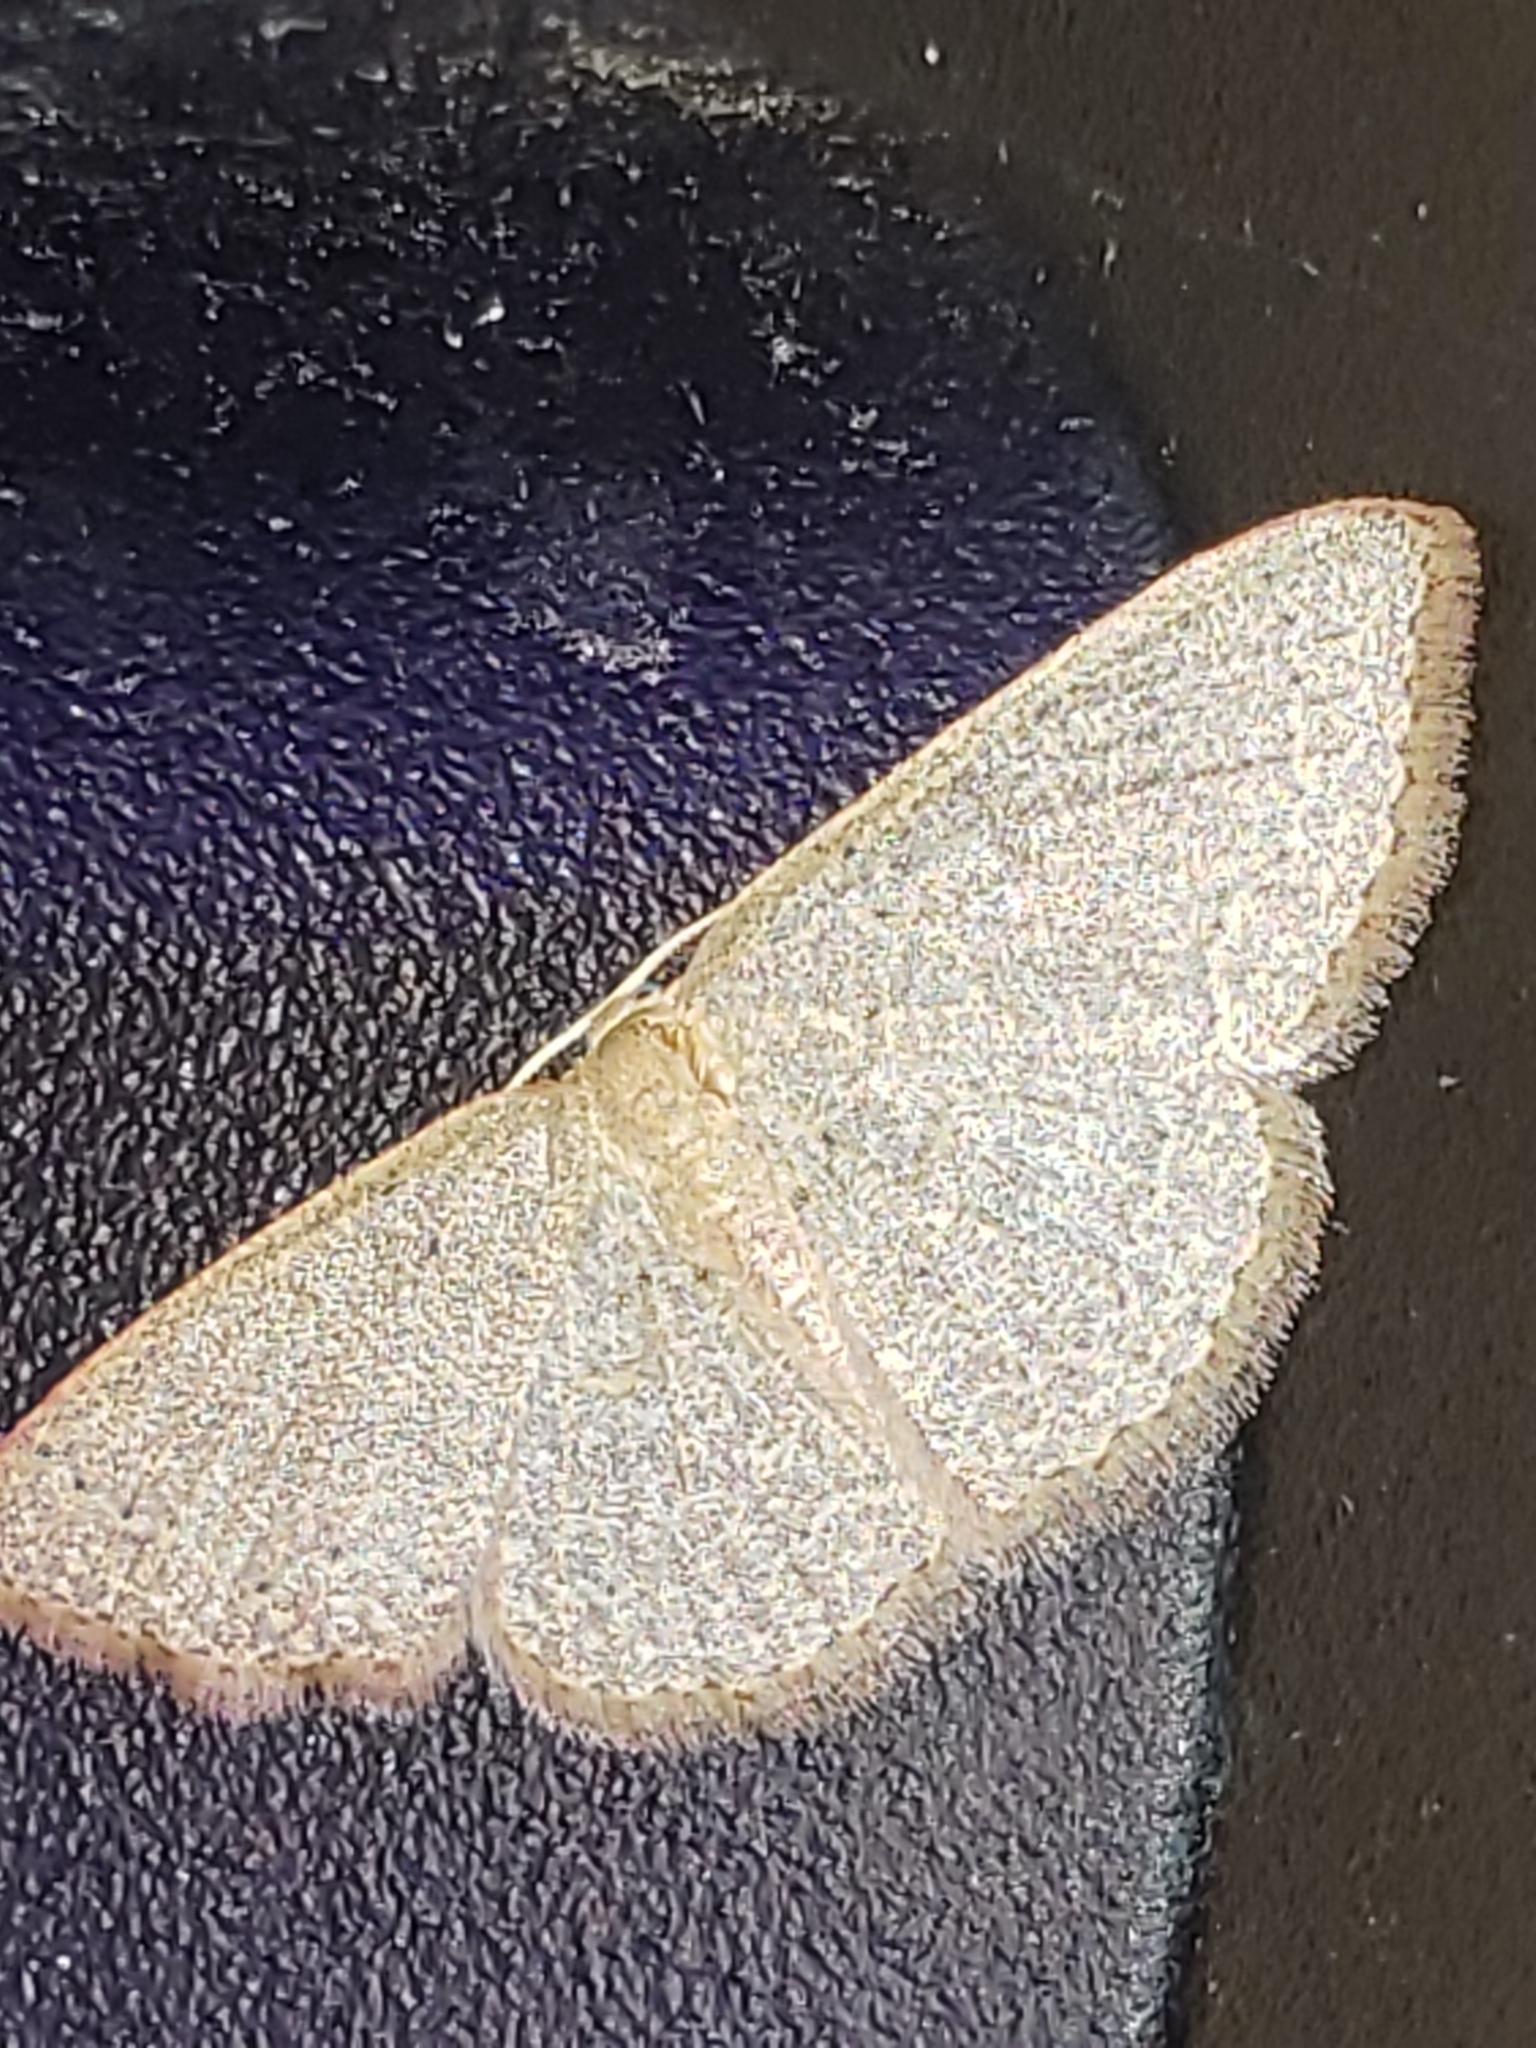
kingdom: Animalia
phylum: Arthropoda
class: Insecta
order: Lepidoptera
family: Geometridae
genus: Pleuroprucha
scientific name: Pleuroprucha insulsaria
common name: Common tan wave
